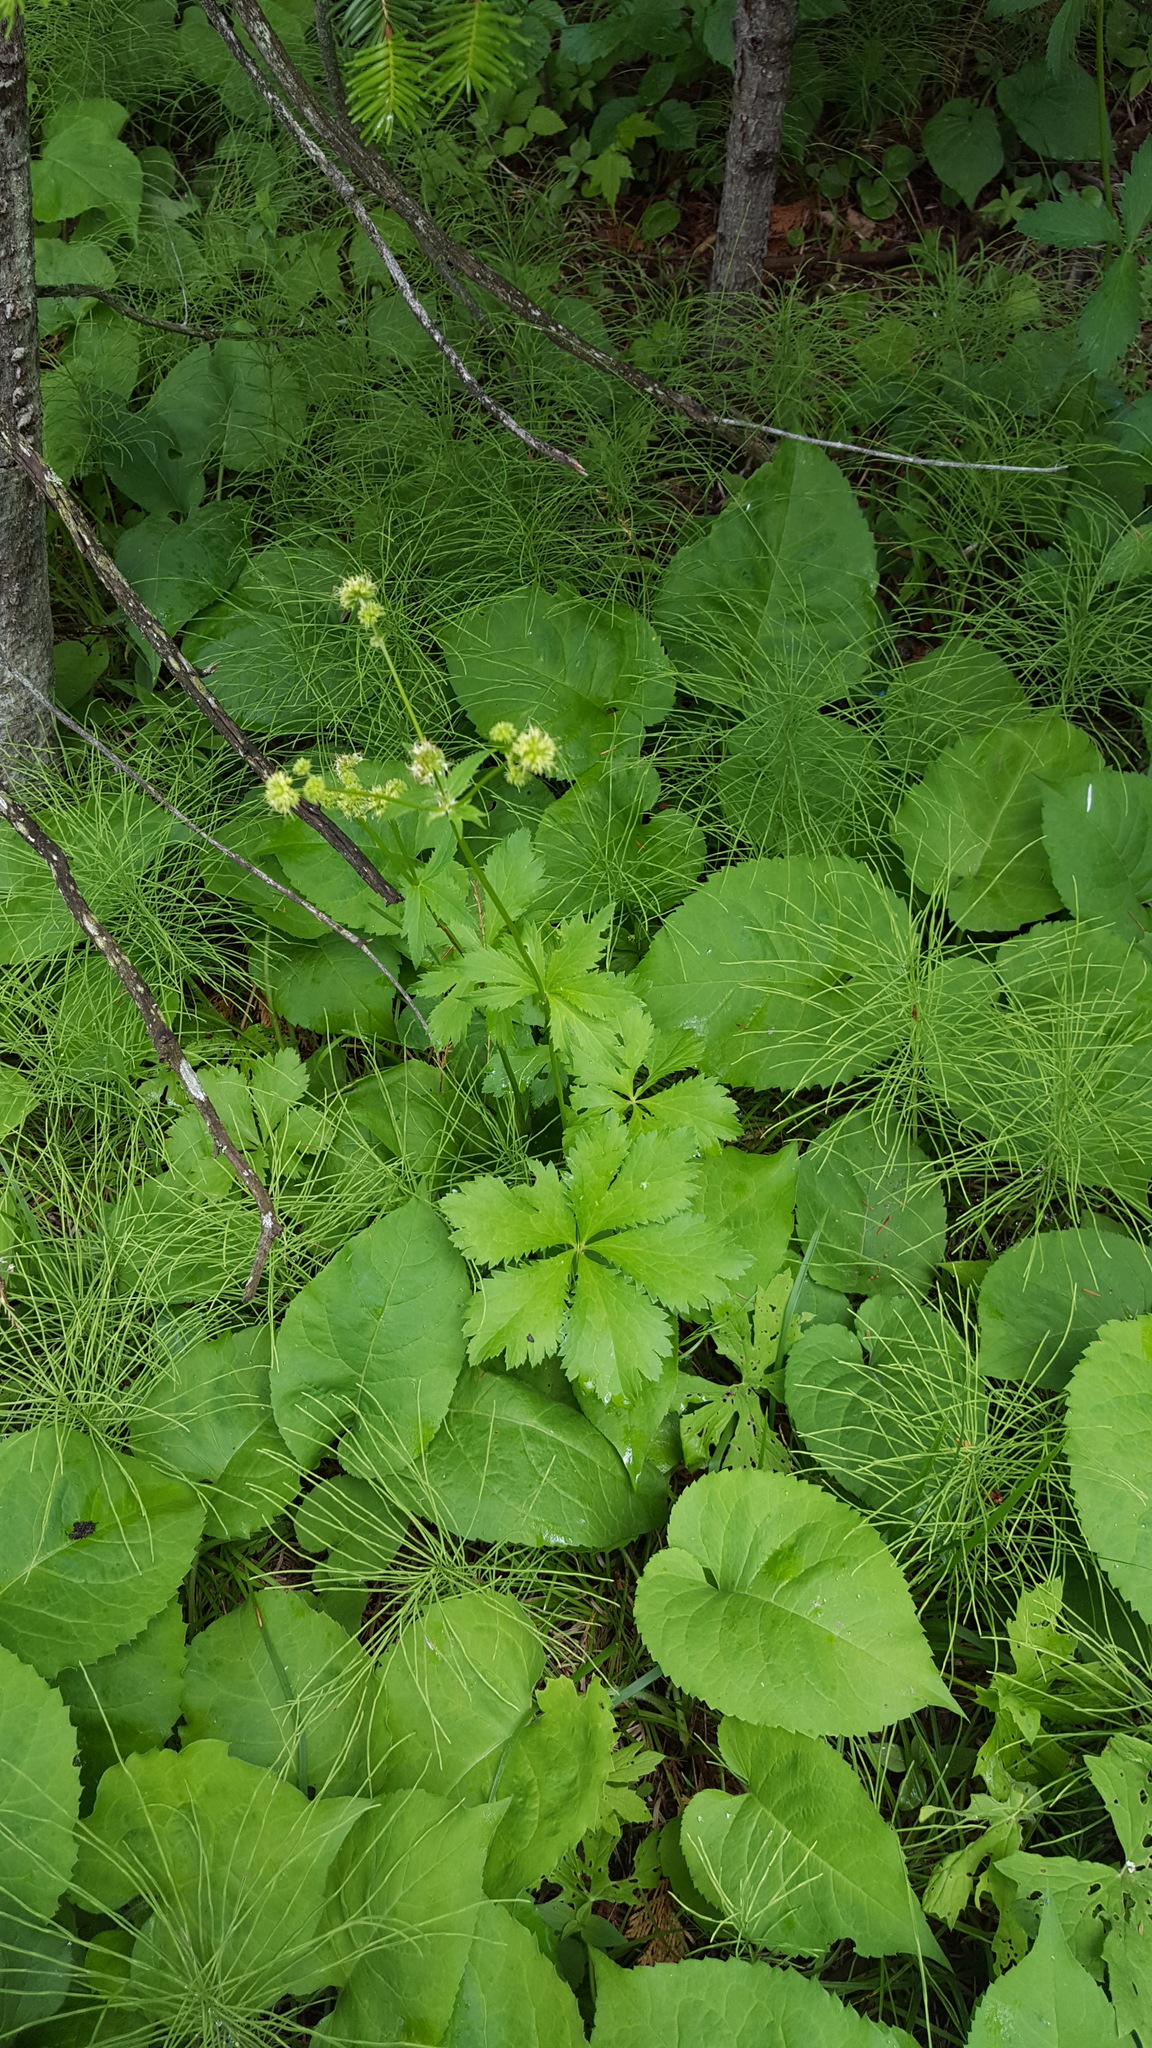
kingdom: Plantae
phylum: Tracheophyta
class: Magnoliopsida
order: Apiales
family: Apiaceae
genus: Sanicula
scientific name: Sanicula marilandica
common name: Black snakeroot
